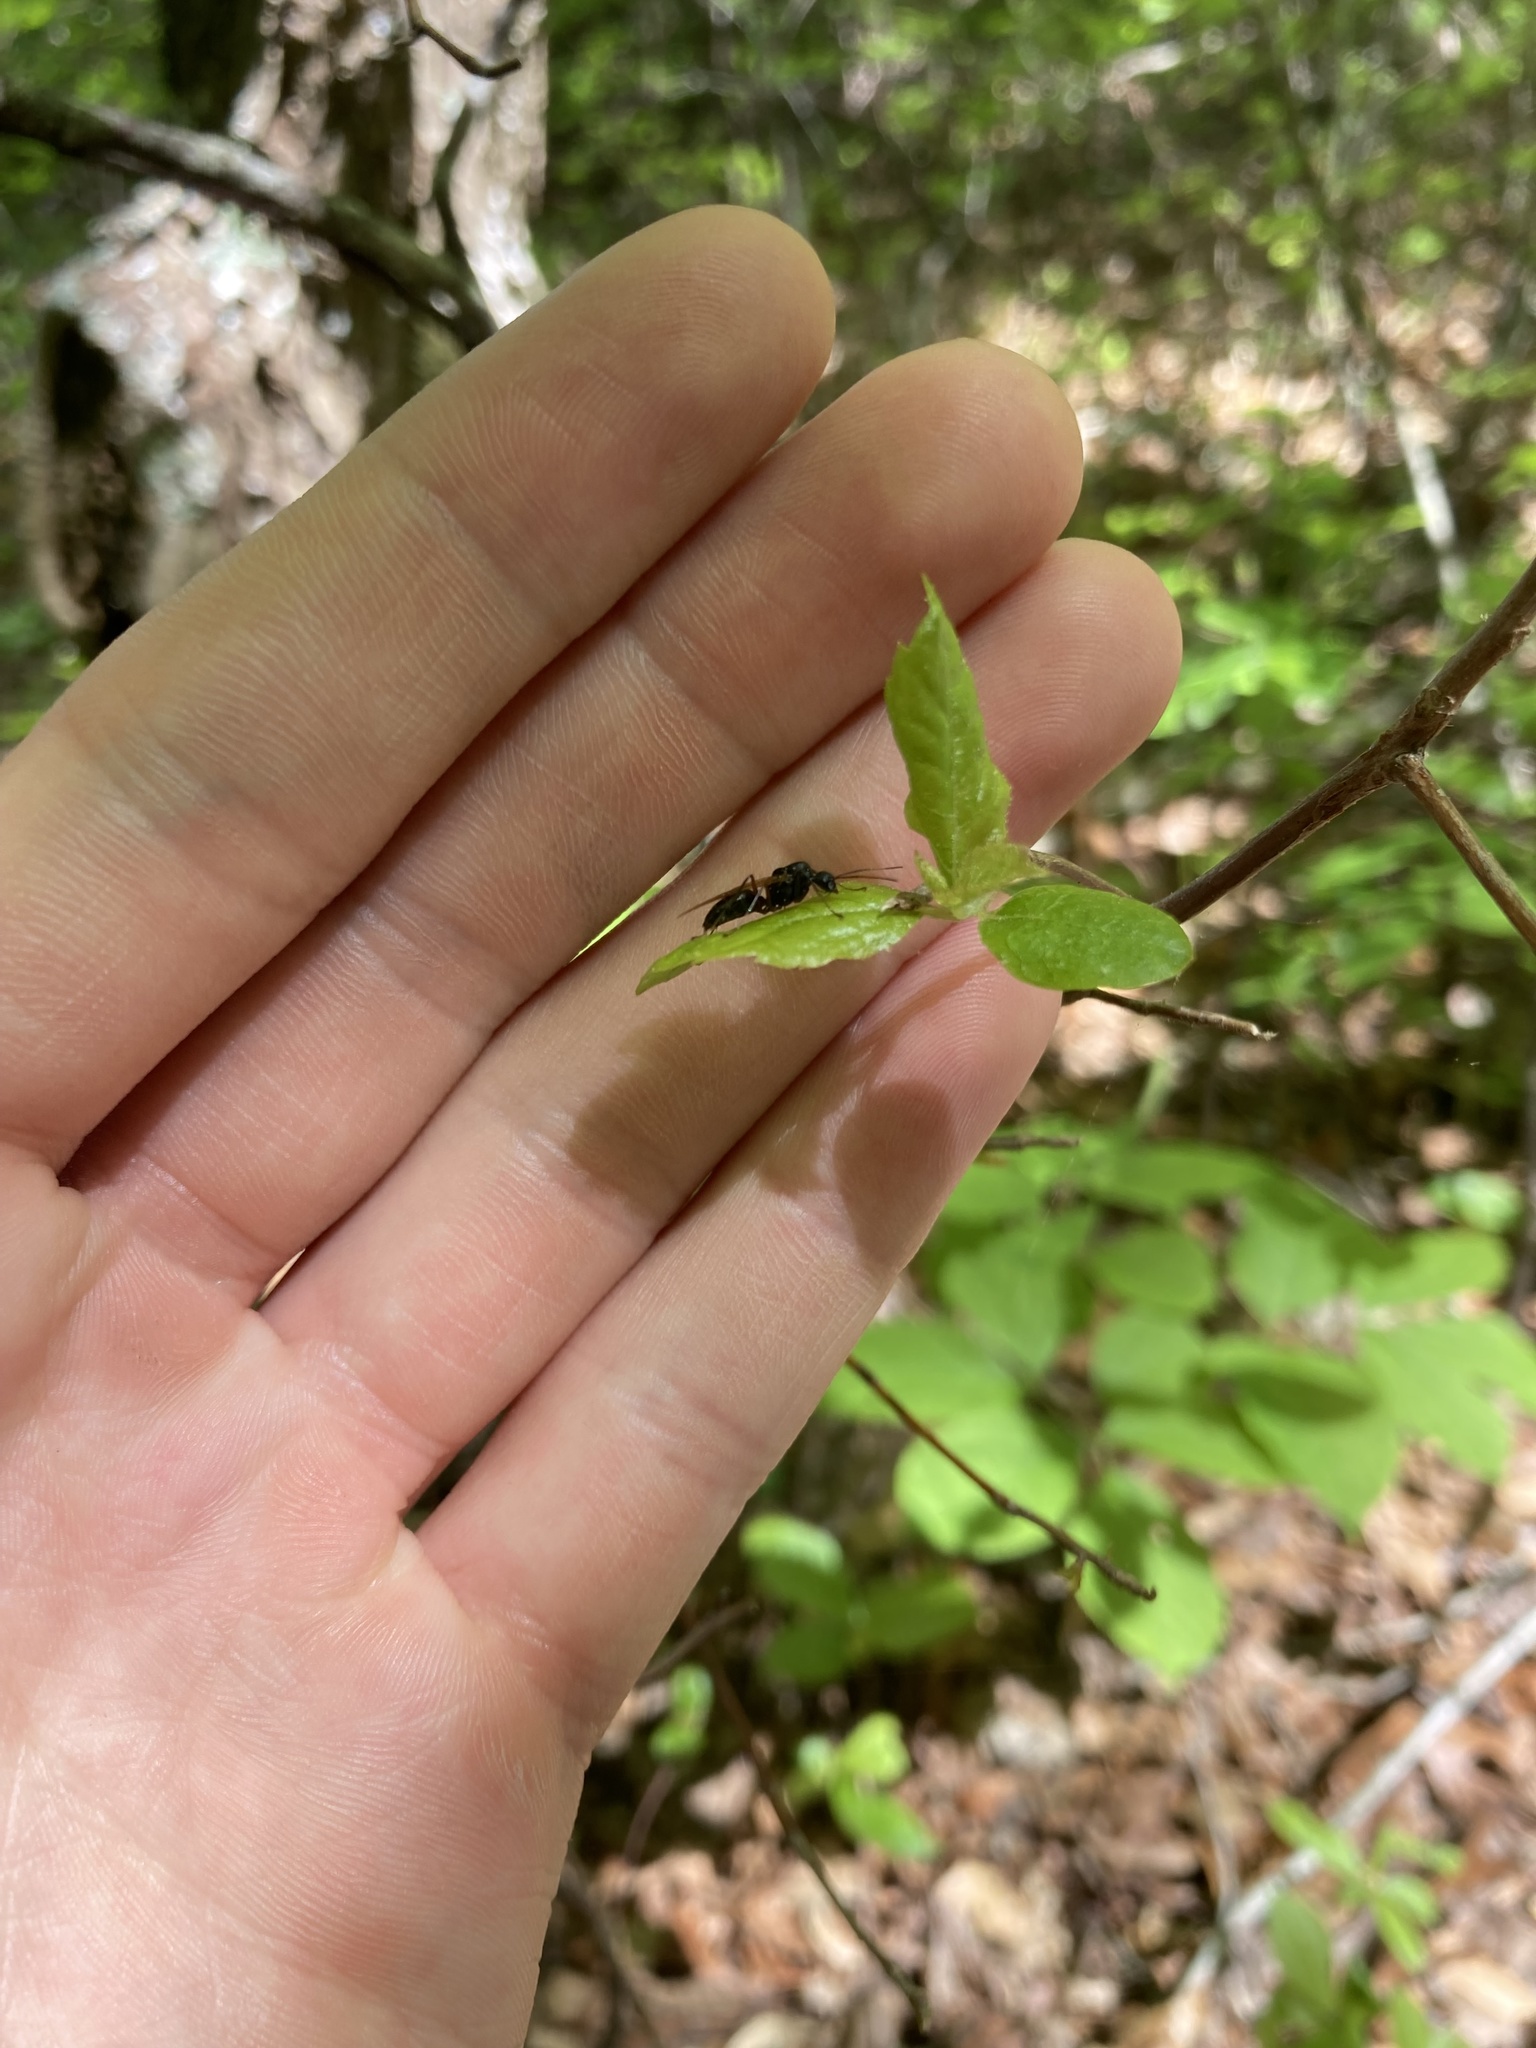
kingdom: Animalia
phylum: Arthropoda
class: Insecta
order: Hymenoptera
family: Formicidae
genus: Camponotus
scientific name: Camponotus pennsylvanicus
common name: Black carpenter ant
